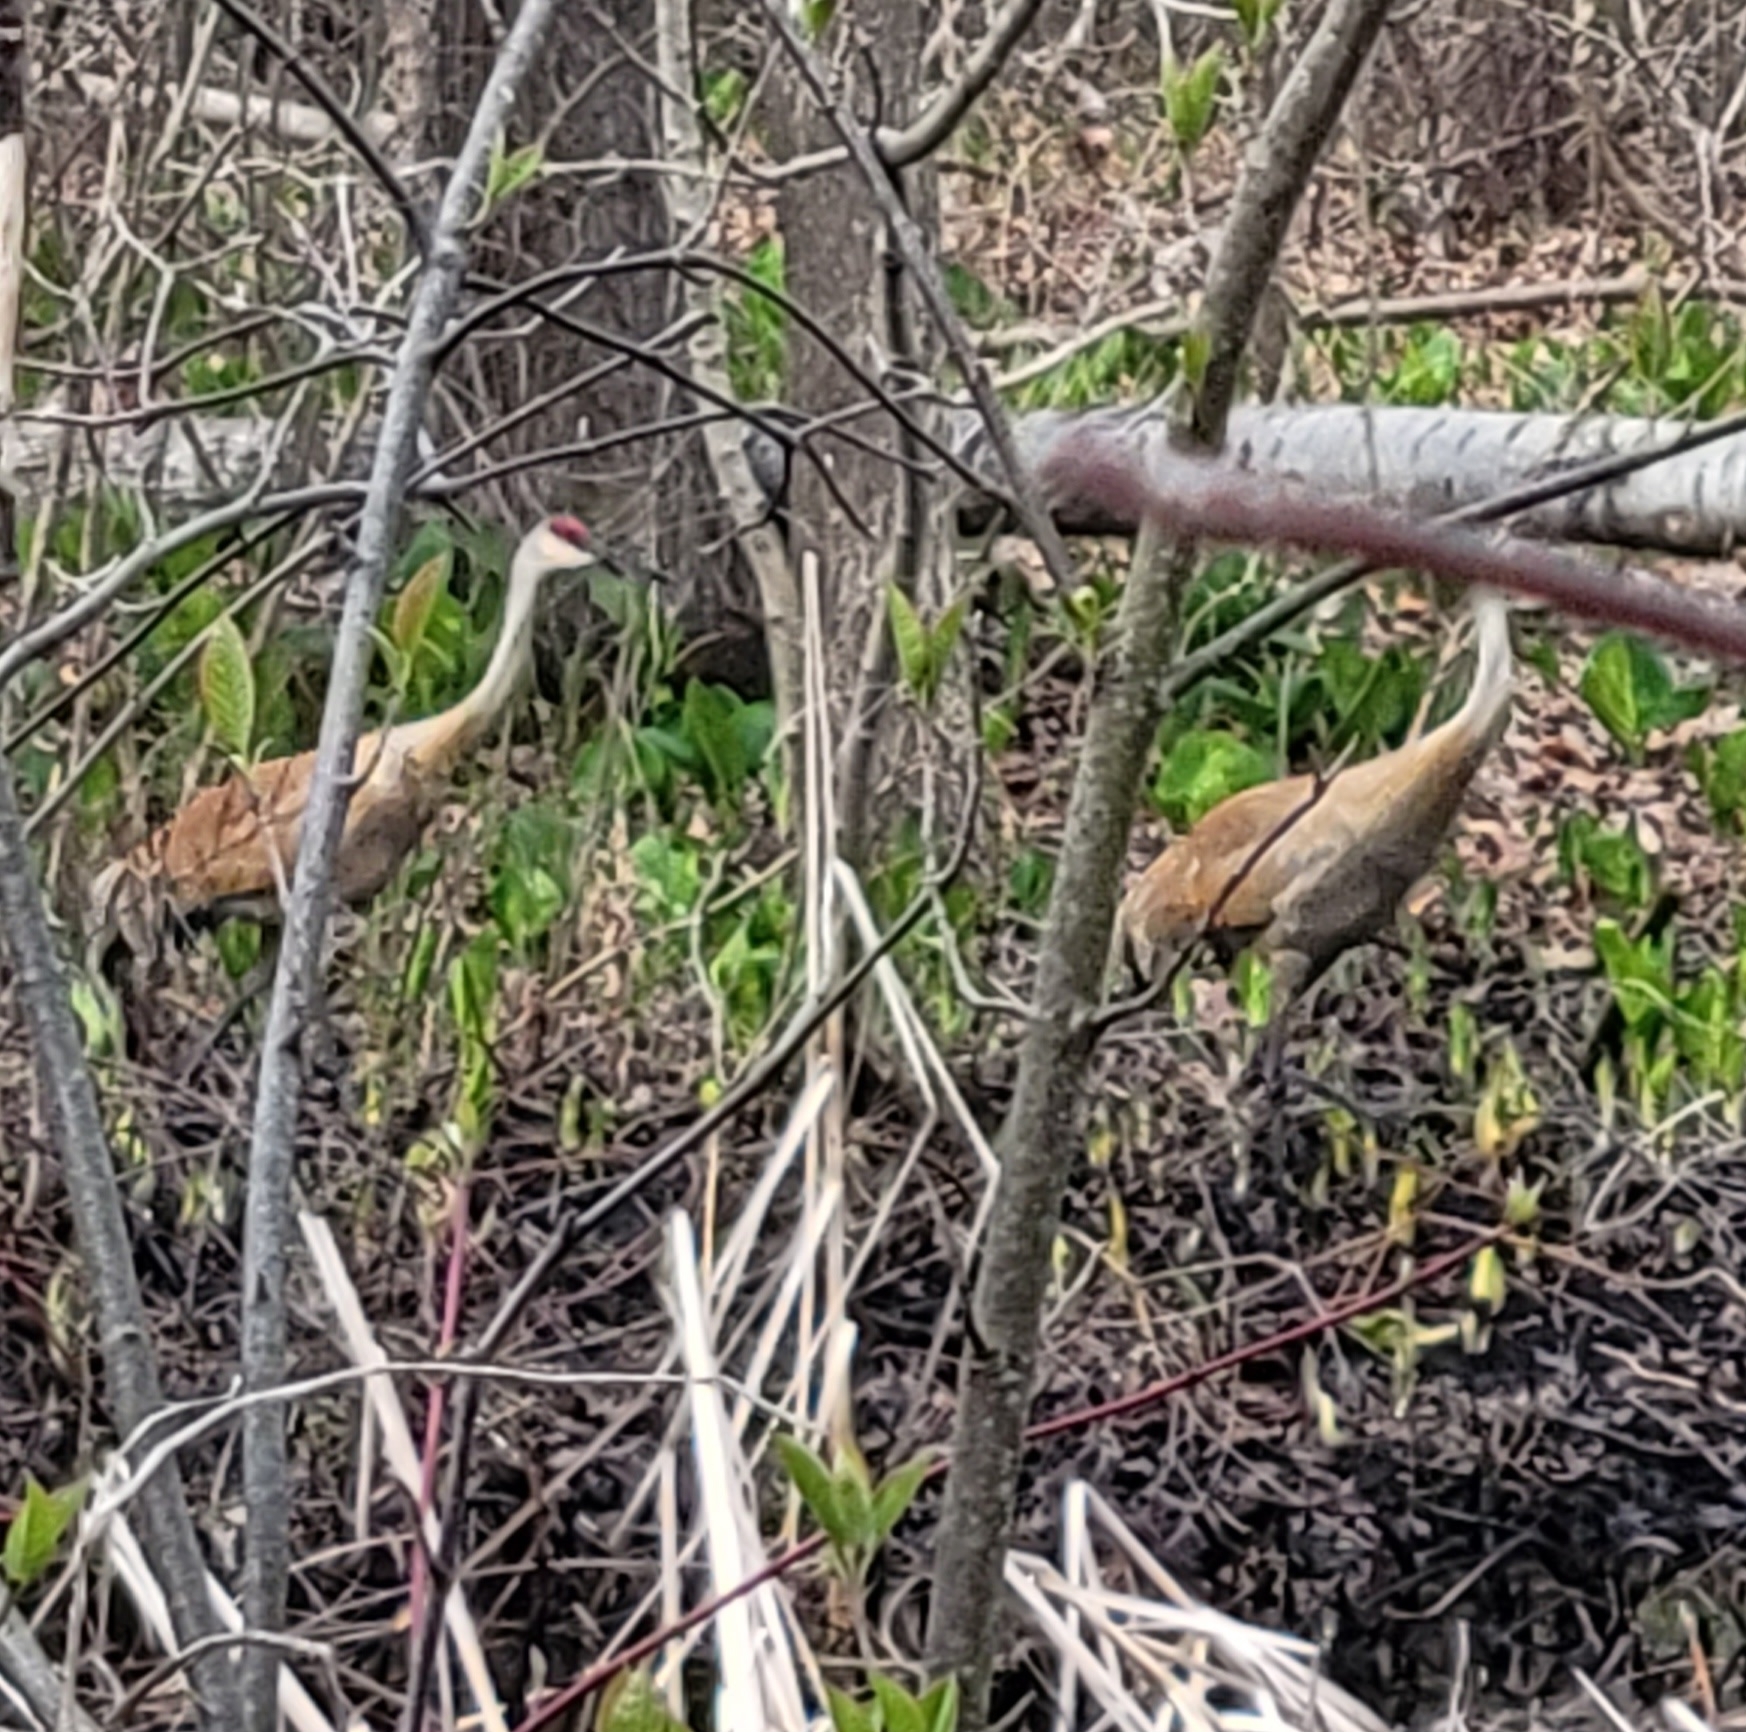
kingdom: Animalia
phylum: Chordata
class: Aves
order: Gruiformes
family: Gruidae
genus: Grus
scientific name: Grus canadensis
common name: Sandhill crane
